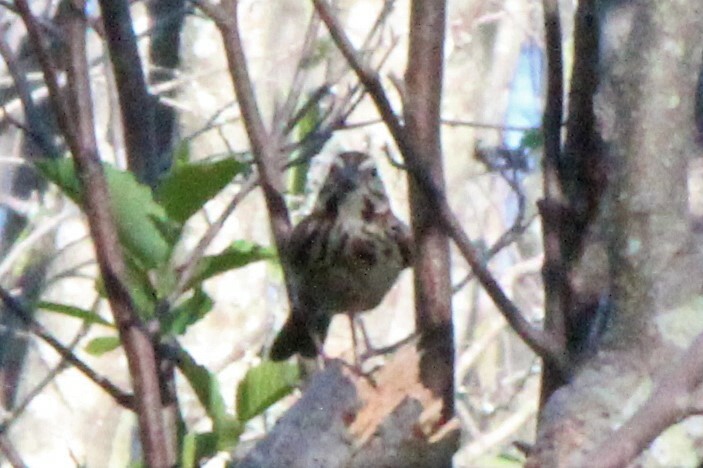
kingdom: Animalia
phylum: Chordata
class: Aves
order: Passeriformes
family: Passerellidae
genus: Melospiza
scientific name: Melospiza melodia
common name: Song sparrow
